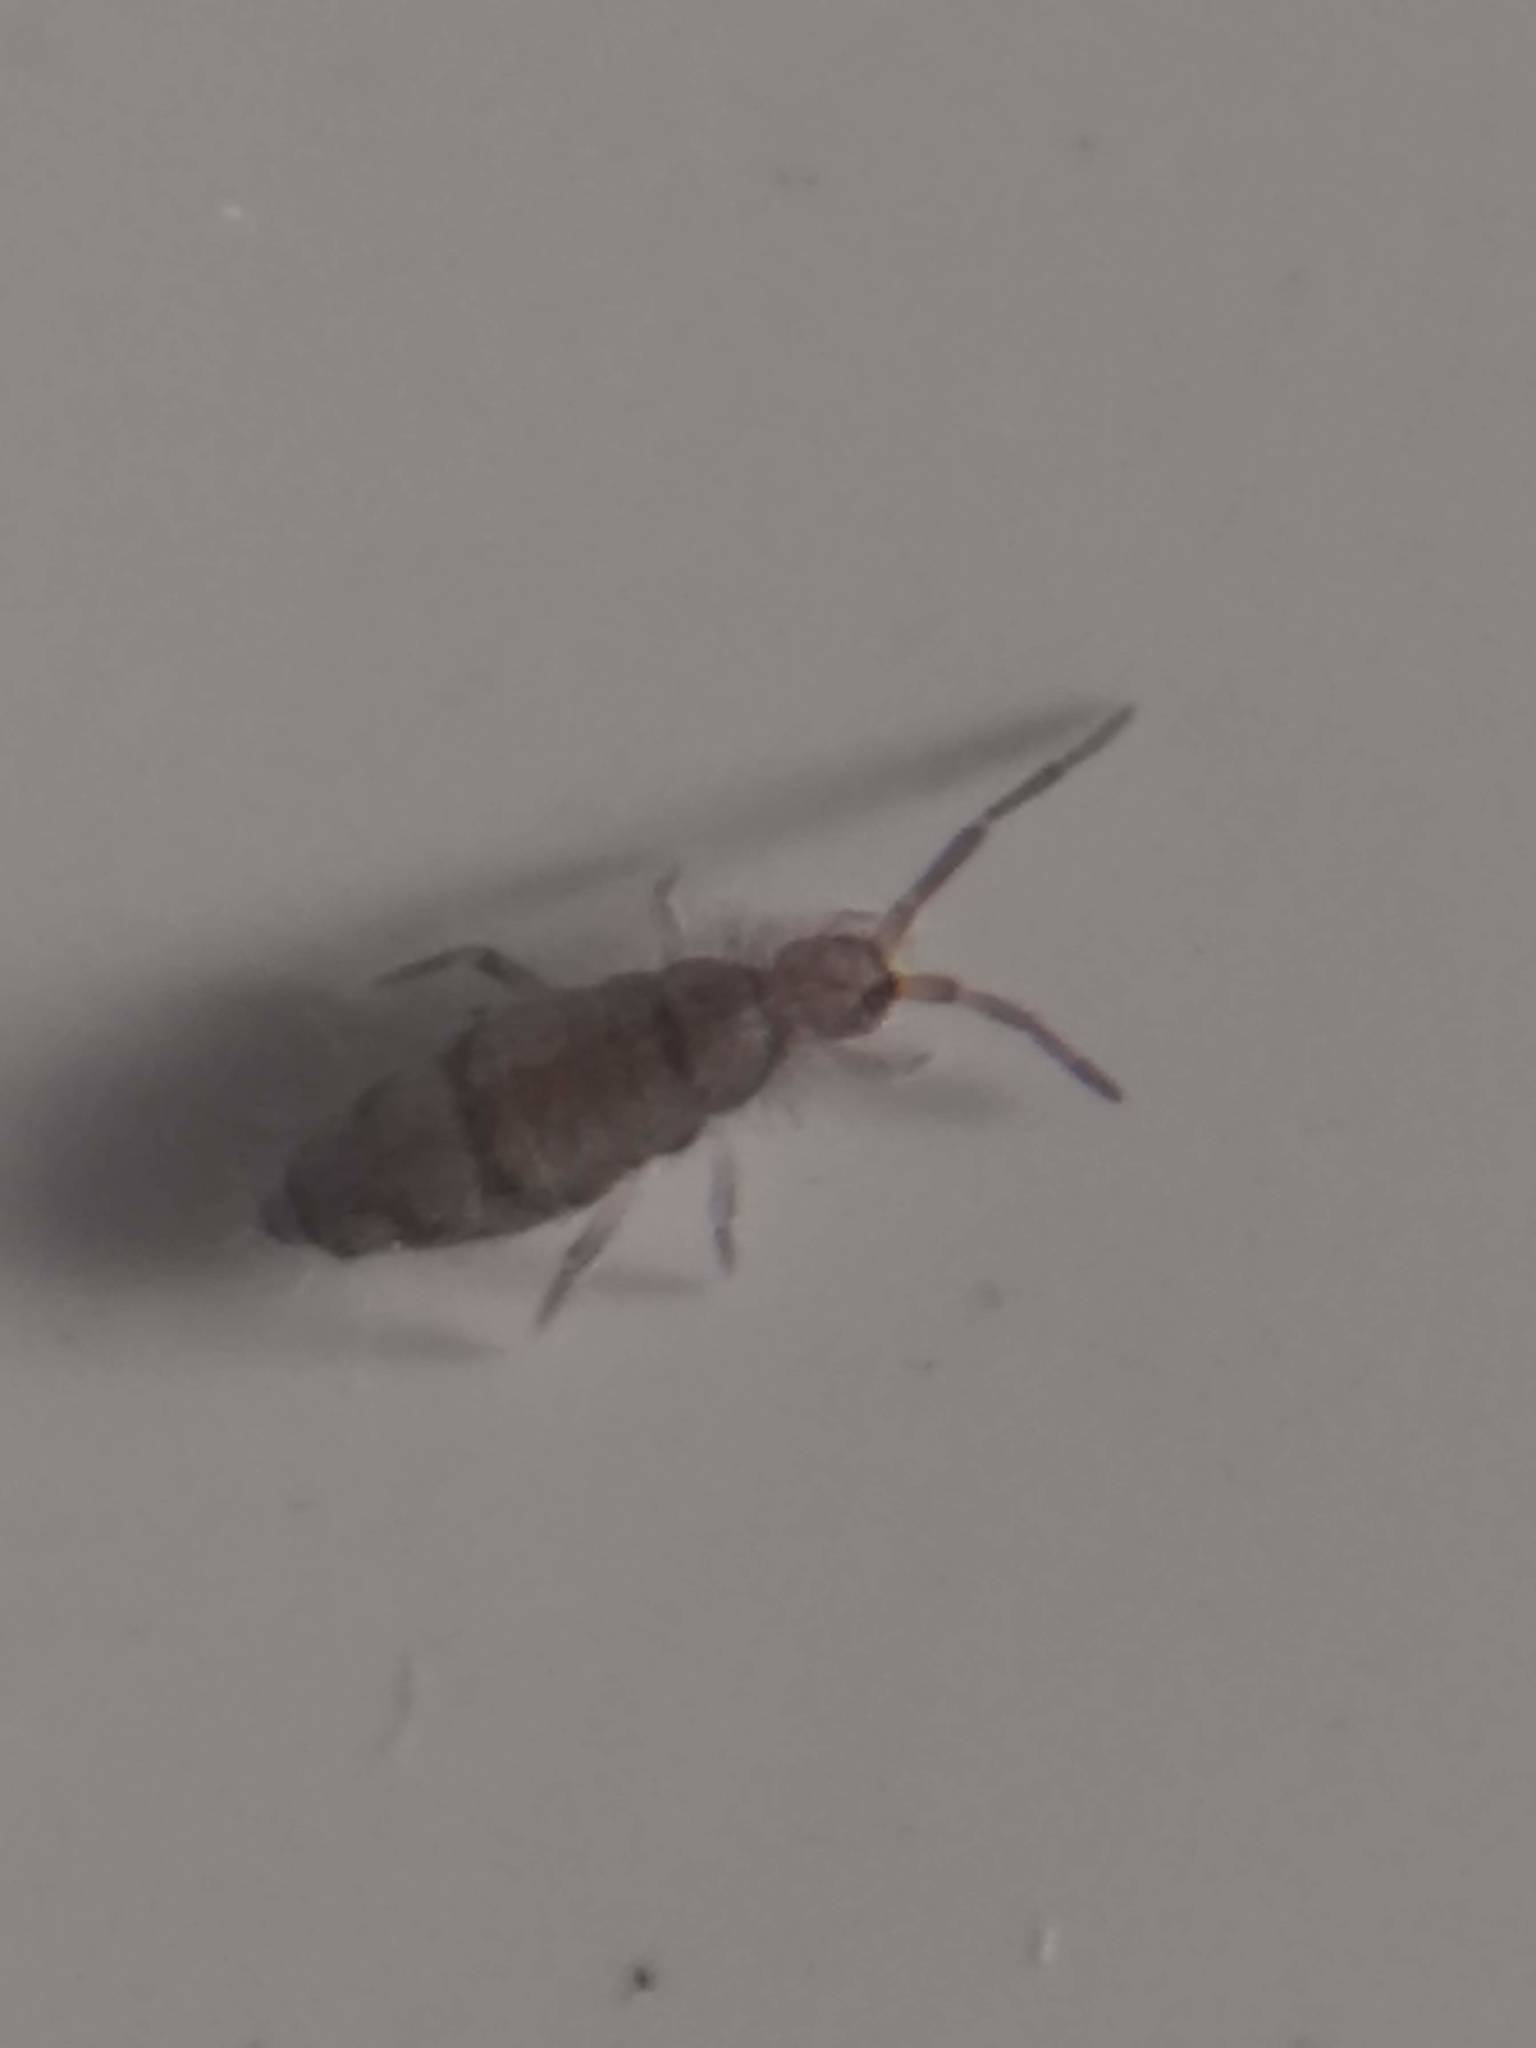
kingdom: Animalia
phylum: Arthropoda
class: Collembola
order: Entomobryomorpha
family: Entomobryidae
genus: Willowsia
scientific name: Willowsia nigromaculata
